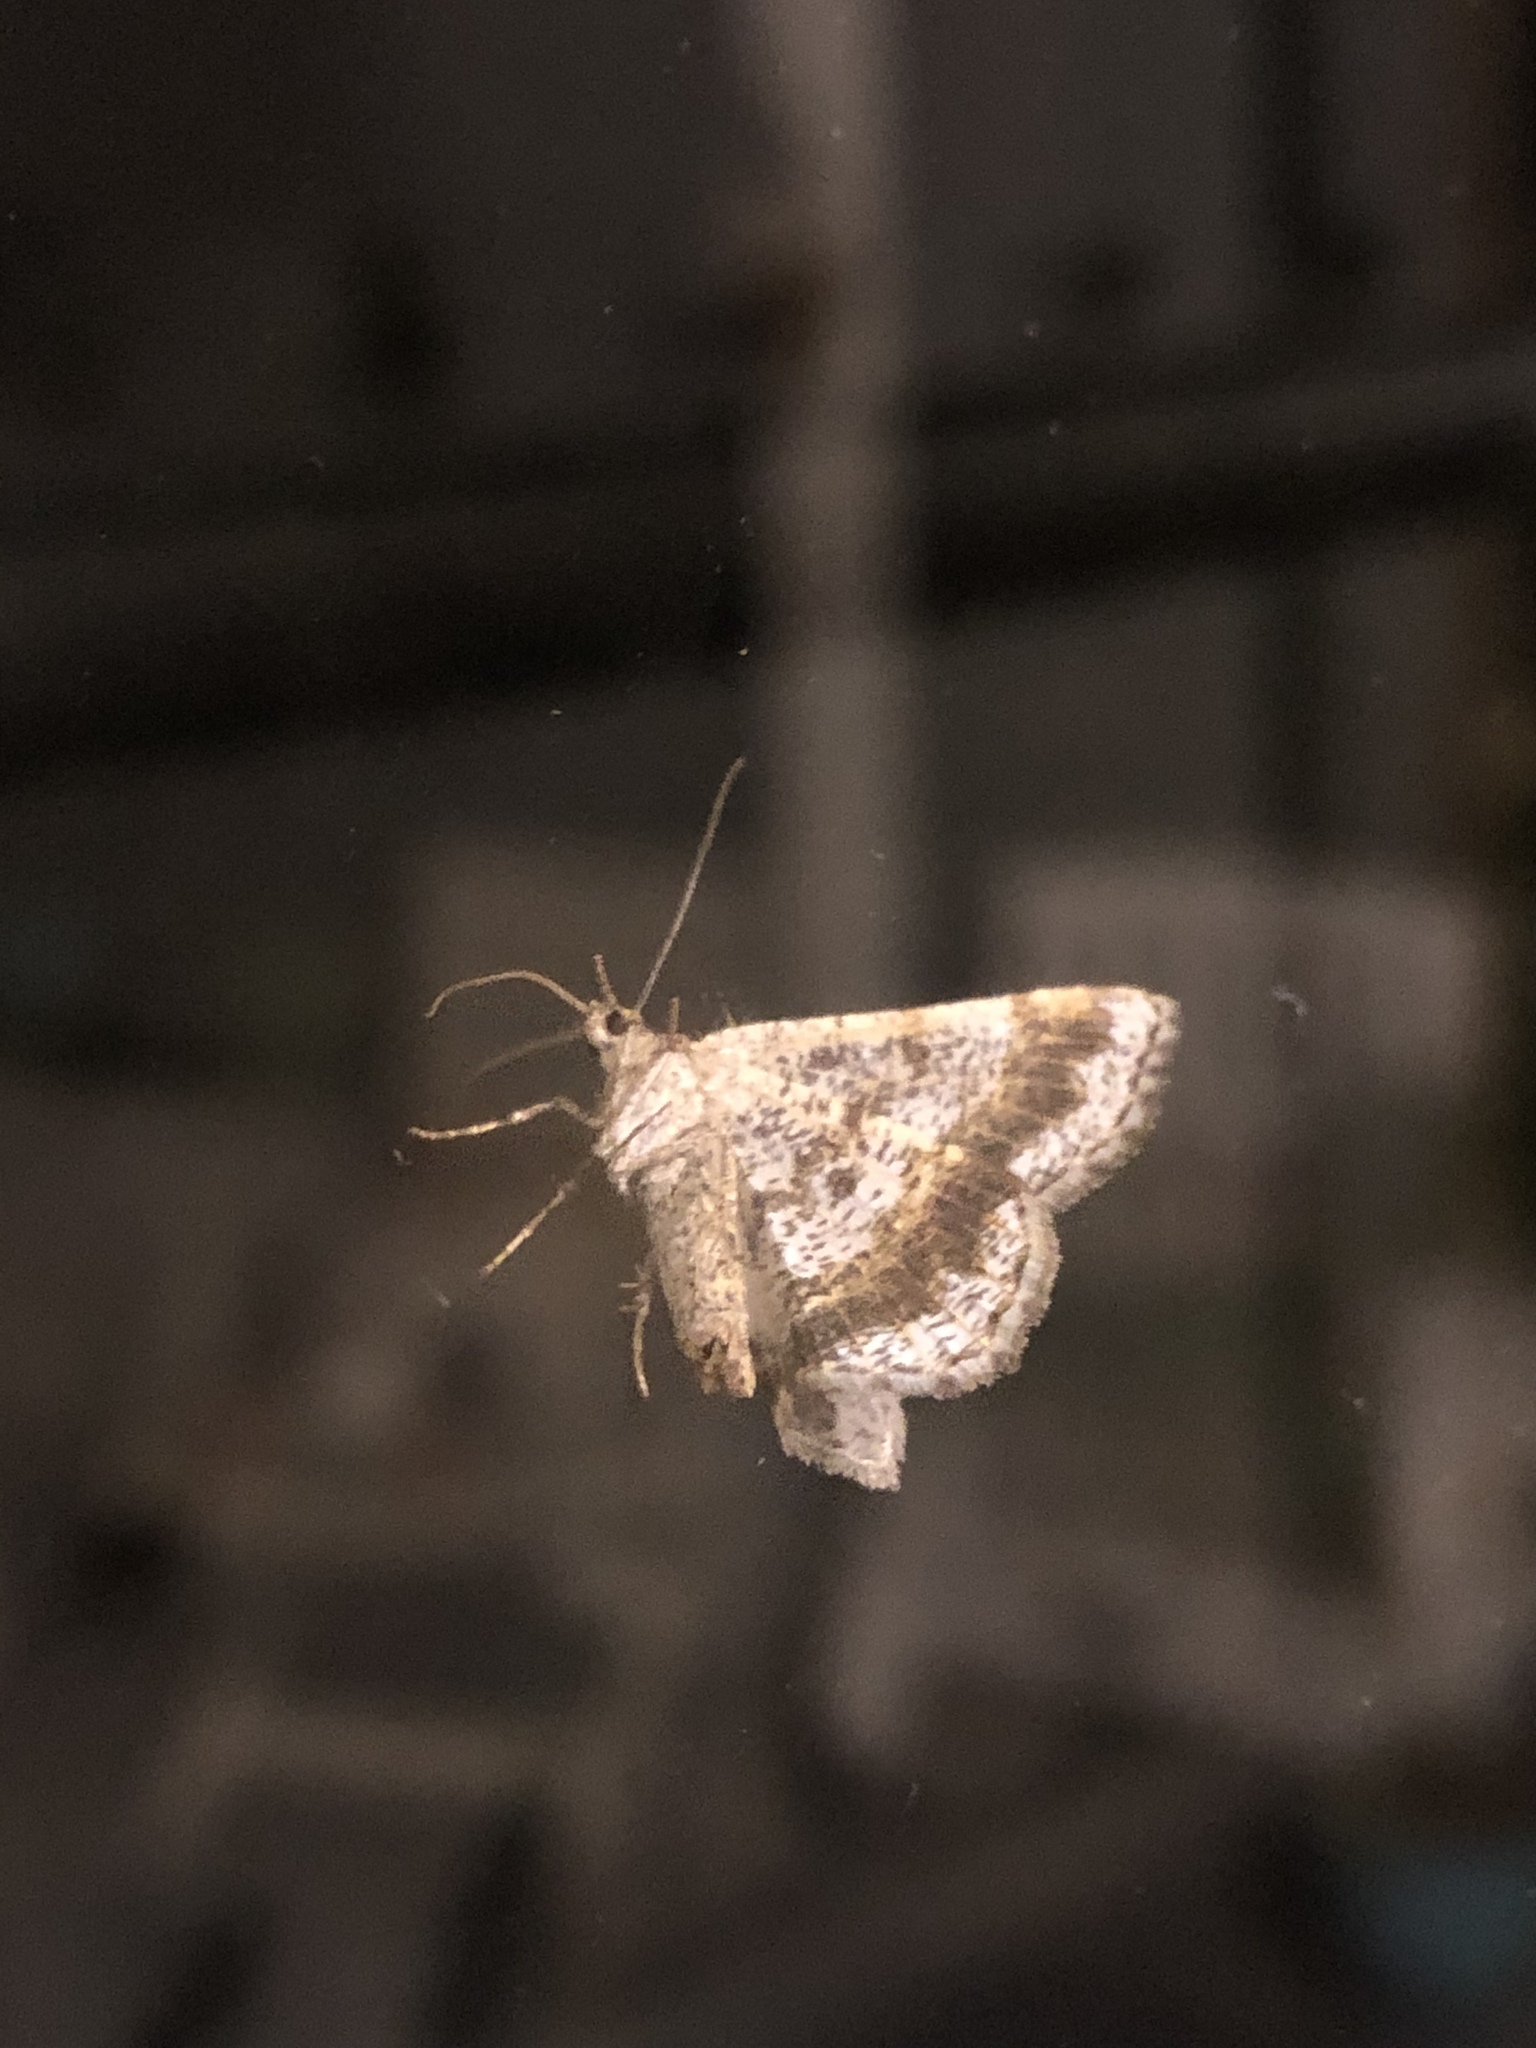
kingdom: Animalia
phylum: Arthropoda
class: Insecta
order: Lepidoptera
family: Geometridae
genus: Digrammia
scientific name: Digrammia ocellinata
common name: Faint-spotted angle
